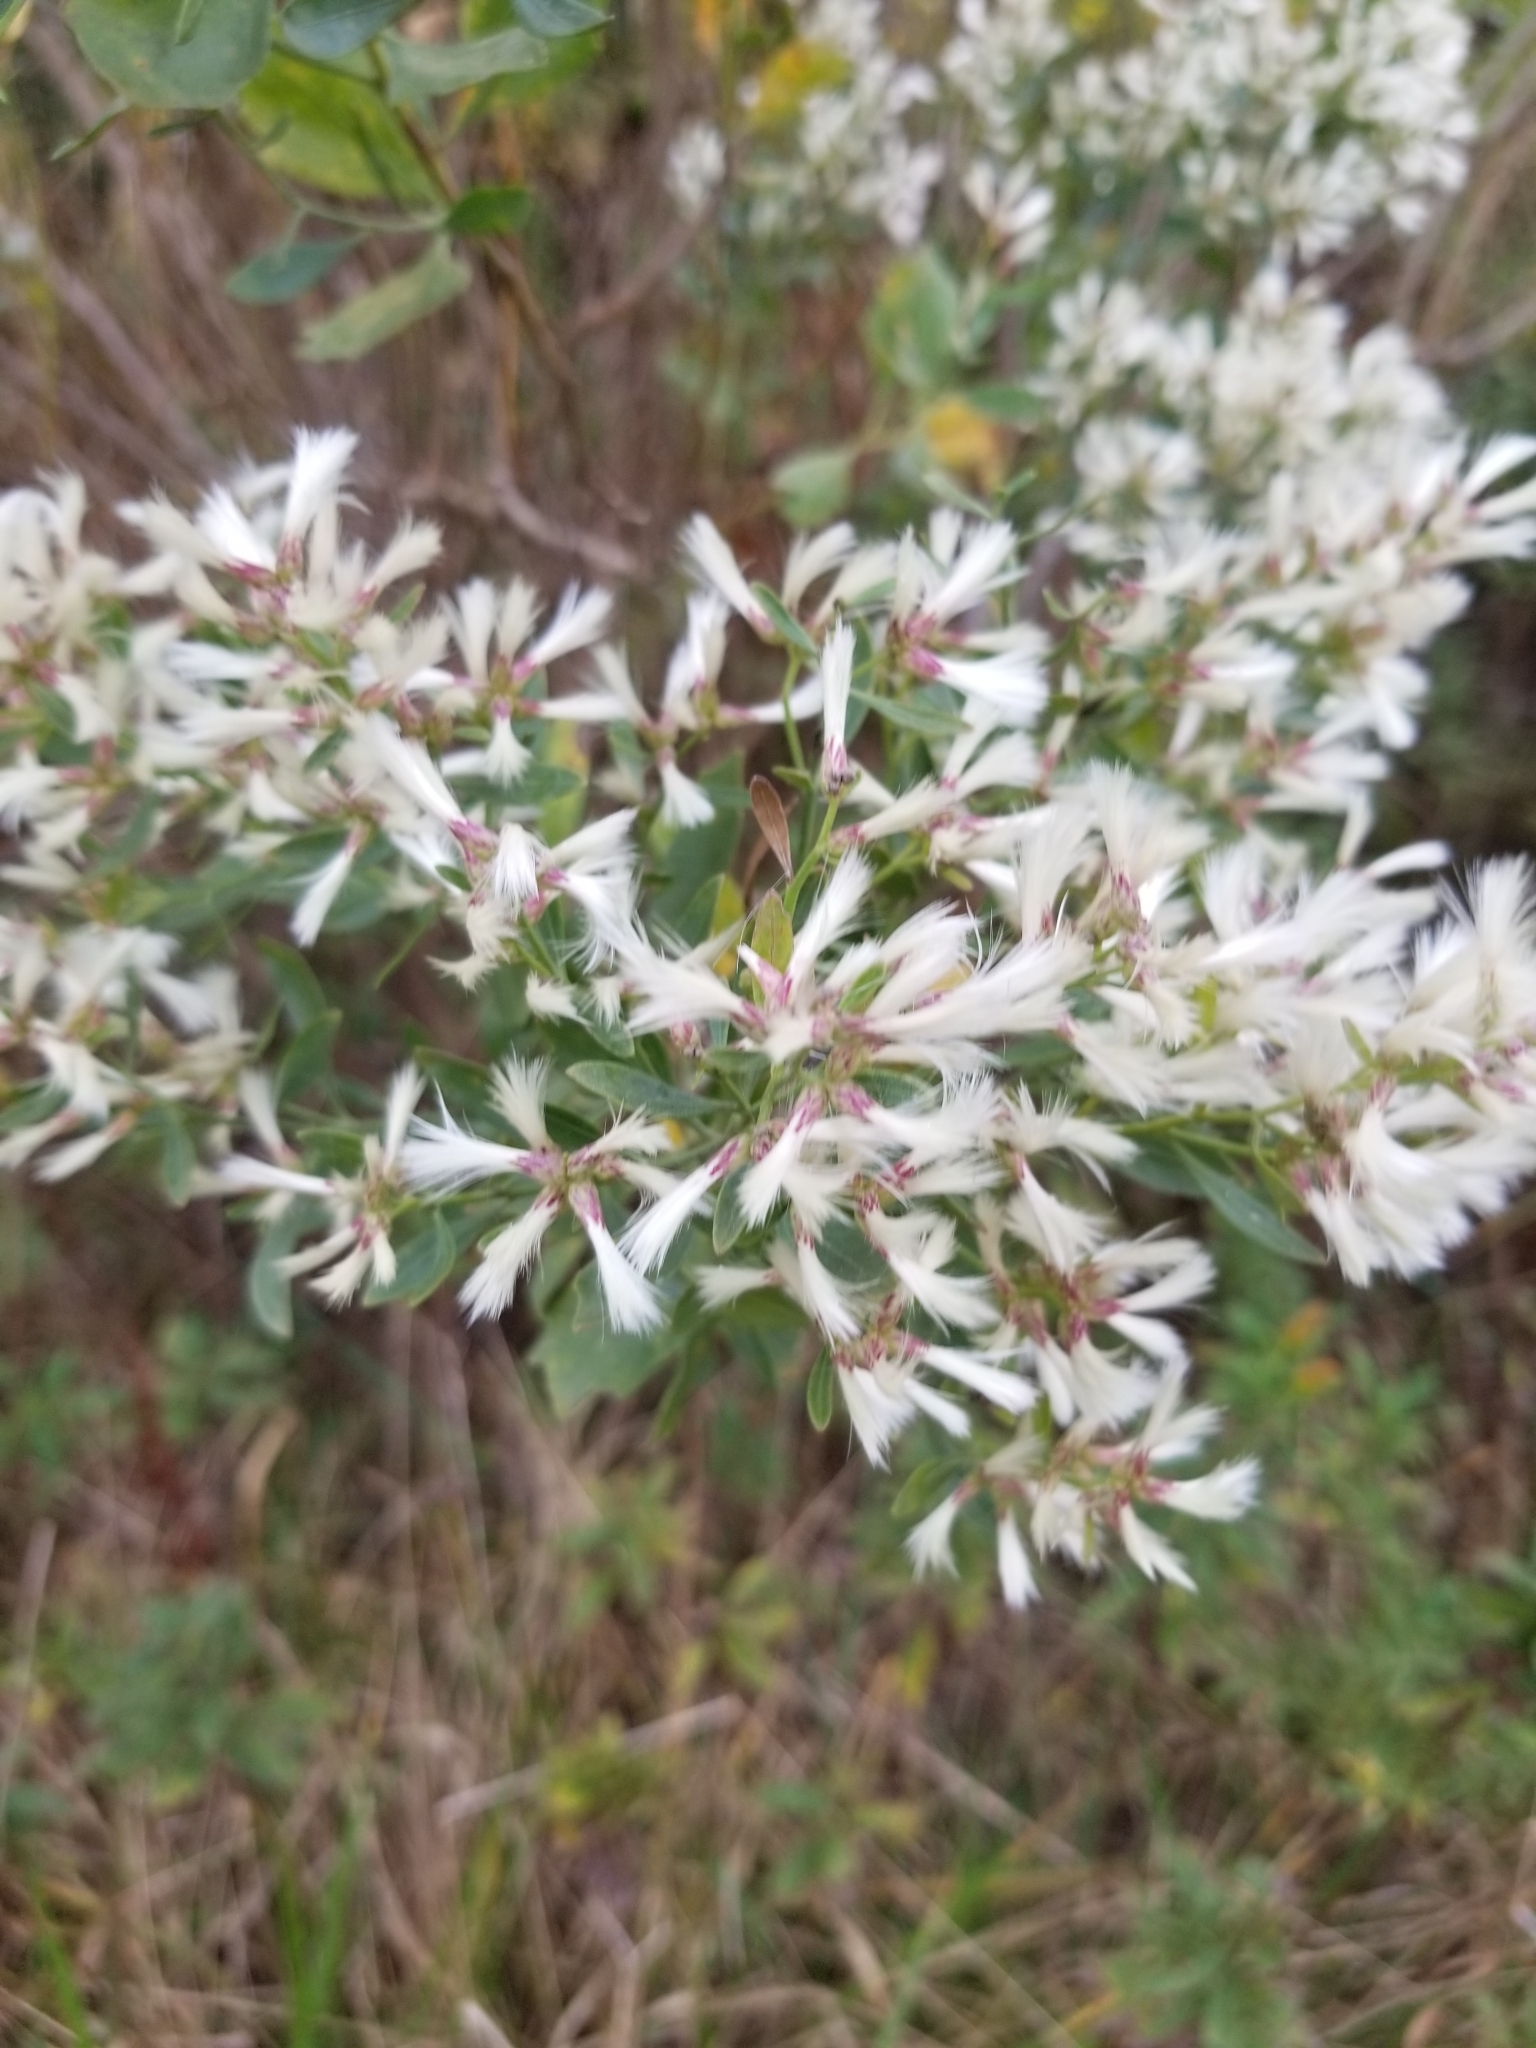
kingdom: Plantae
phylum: Tracheophyta
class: Magnoliopsida
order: Asterales
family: Asteraceae
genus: Baccharis
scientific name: Baccharis halimifolia
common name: Eastern baccharis
